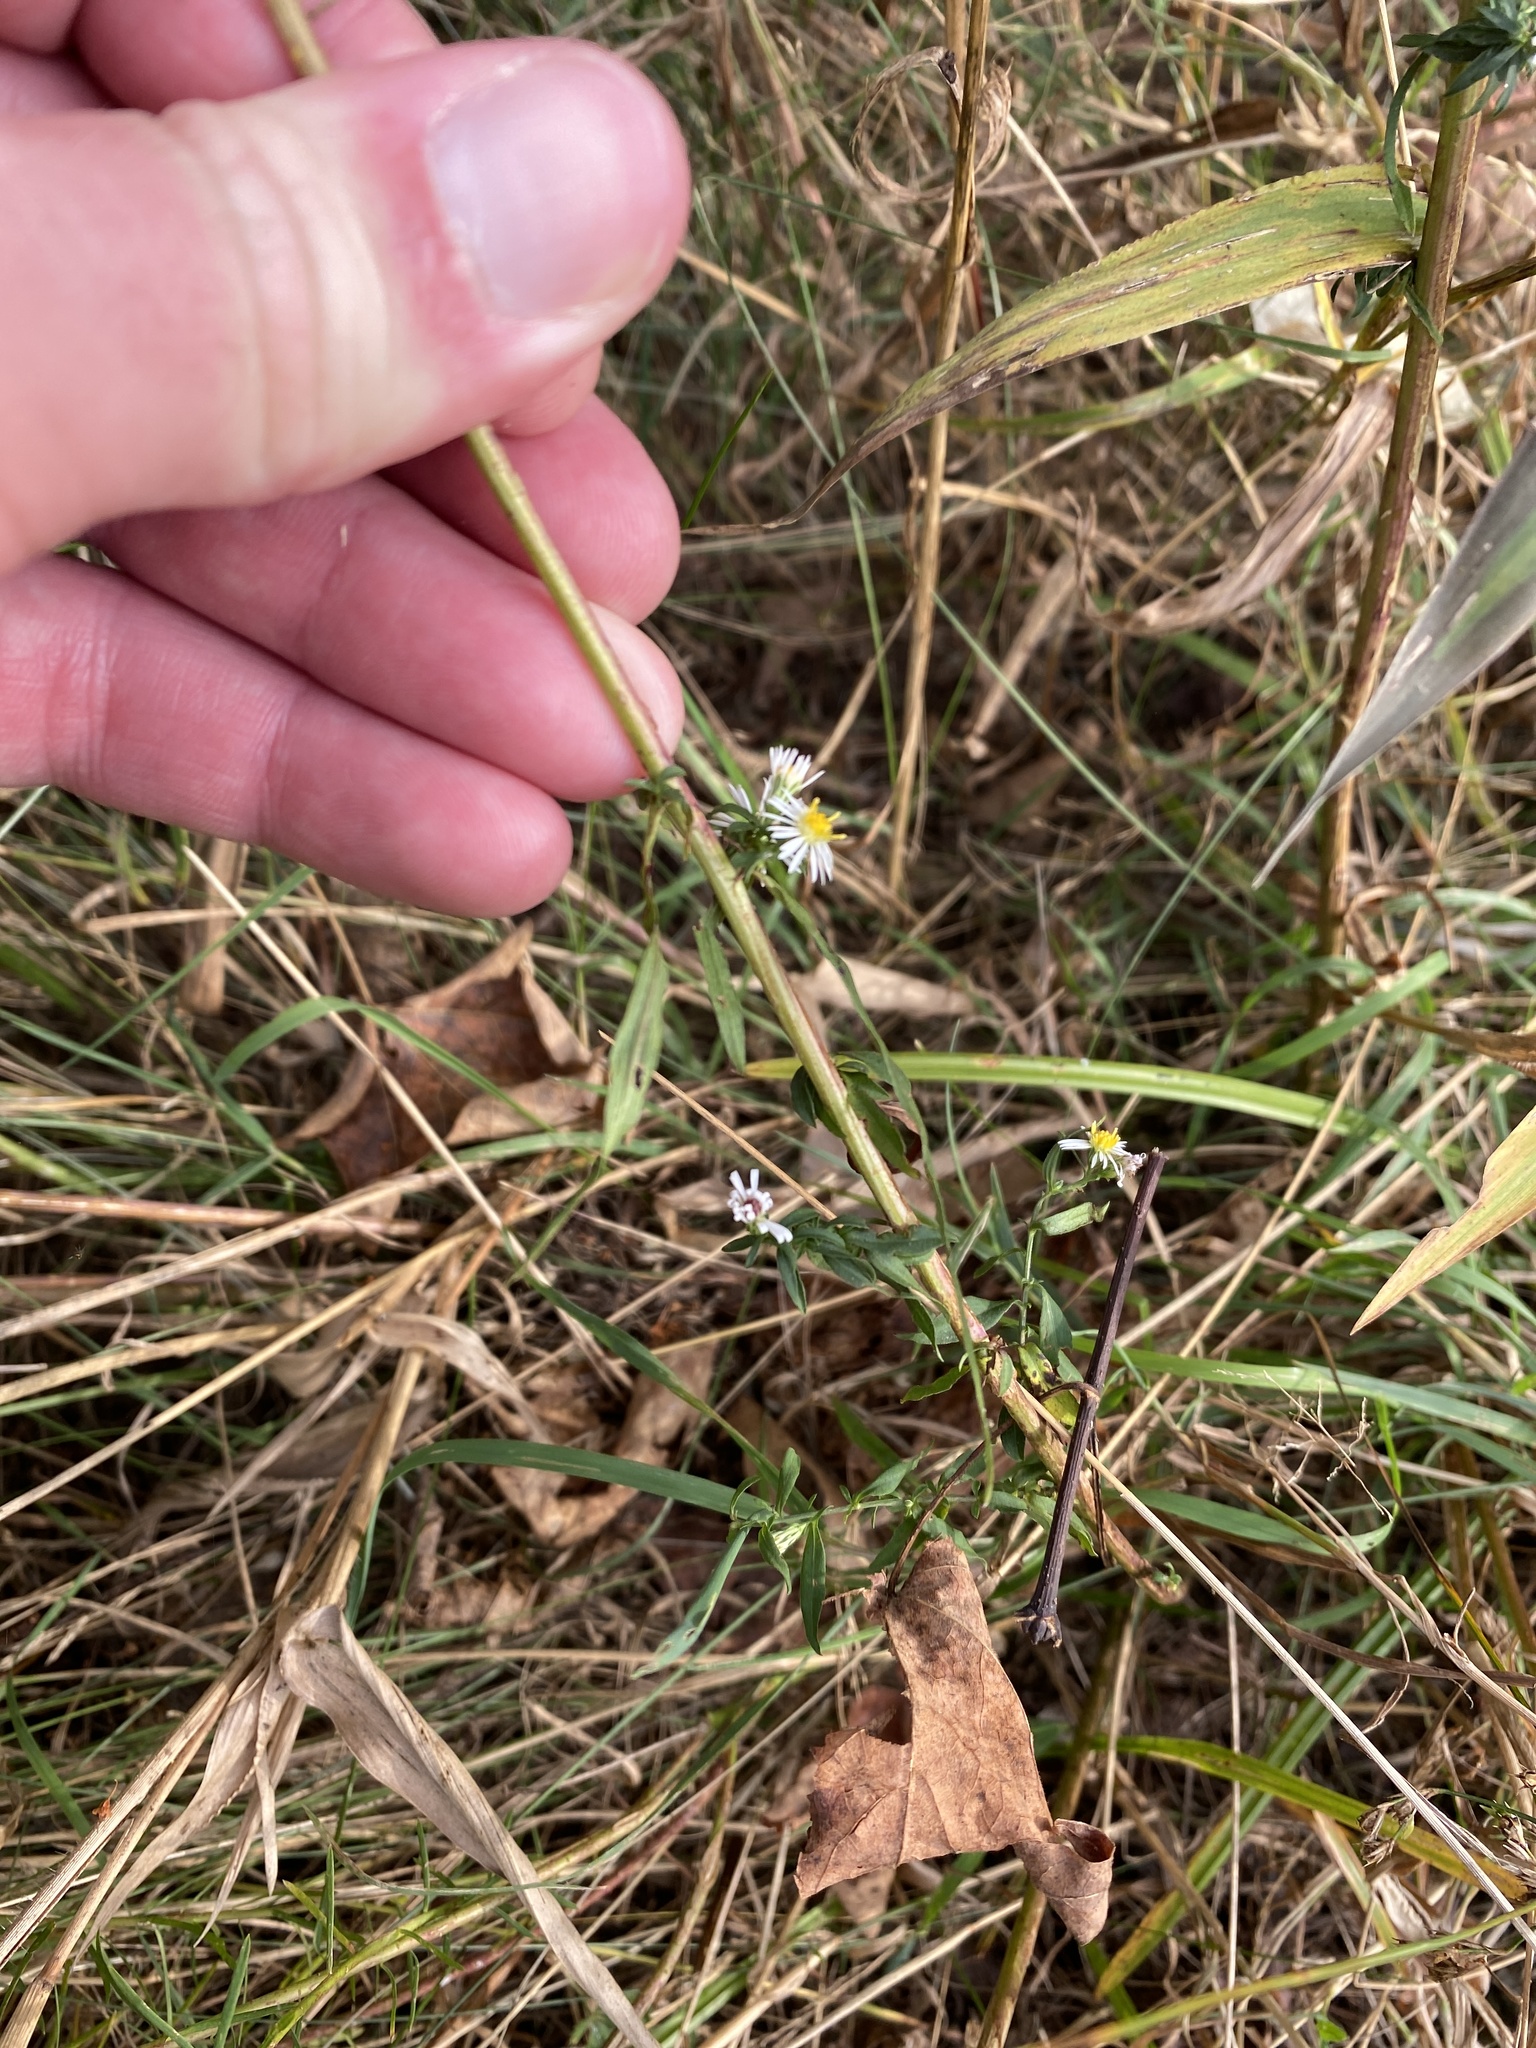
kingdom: Plantae
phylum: Tracheophyta
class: Magnoliopsida
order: Asterales
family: Asteraceae
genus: Symphyotrichum
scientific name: Symphyotrichum racemosum
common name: Small white aster
